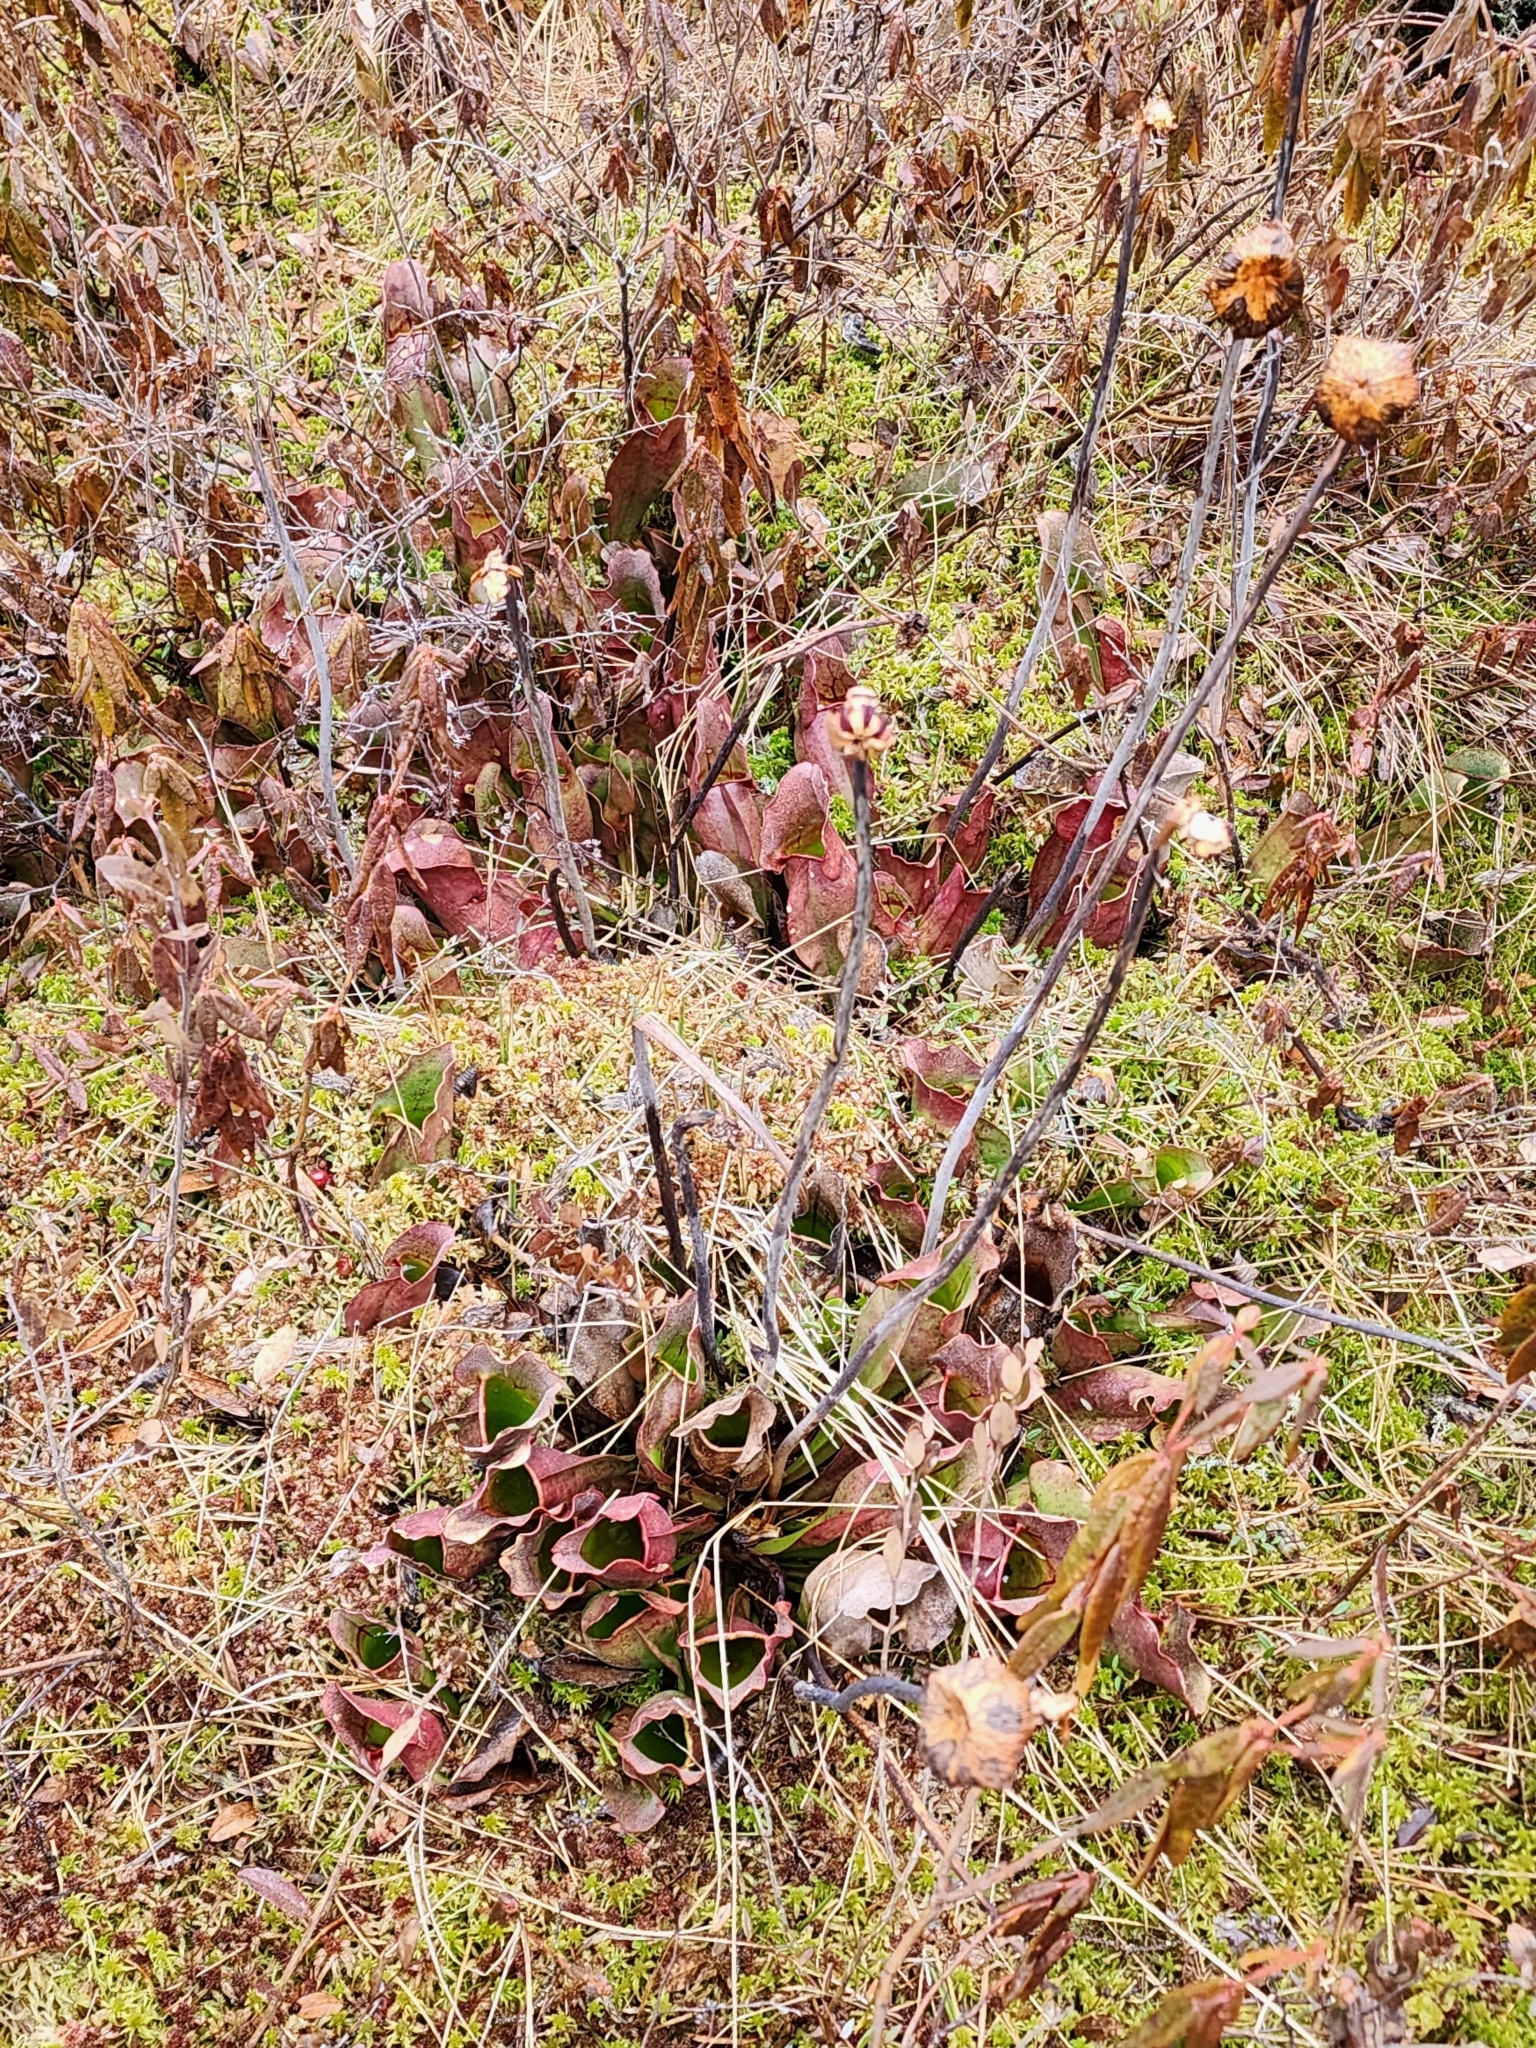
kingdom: Plantae
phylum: Tracheophyta
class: Magnoliopsida
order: Ericales
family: Sarraceniaceae
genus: Sarracenia
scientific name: Sarracenia purpurea
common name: Pitcherplant
